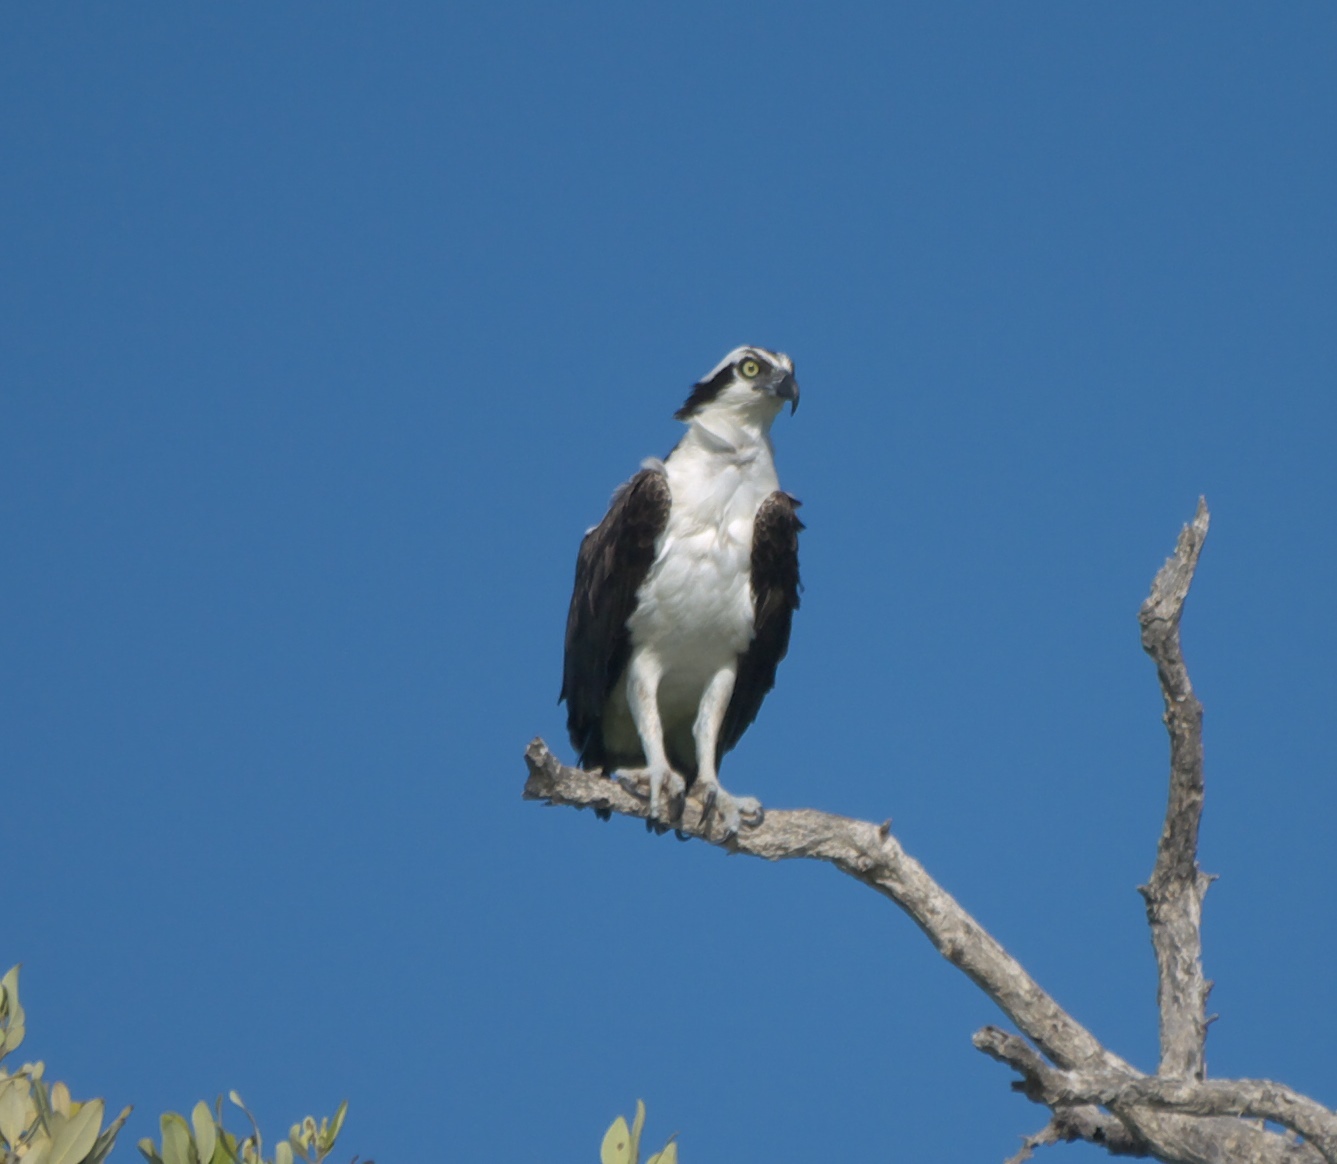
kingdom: Animalia
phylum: Chordata
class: Aves
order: Accipitriformes
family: Pandionidae
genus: Pandion
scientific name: Pandion haliaetus
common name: Osprey
